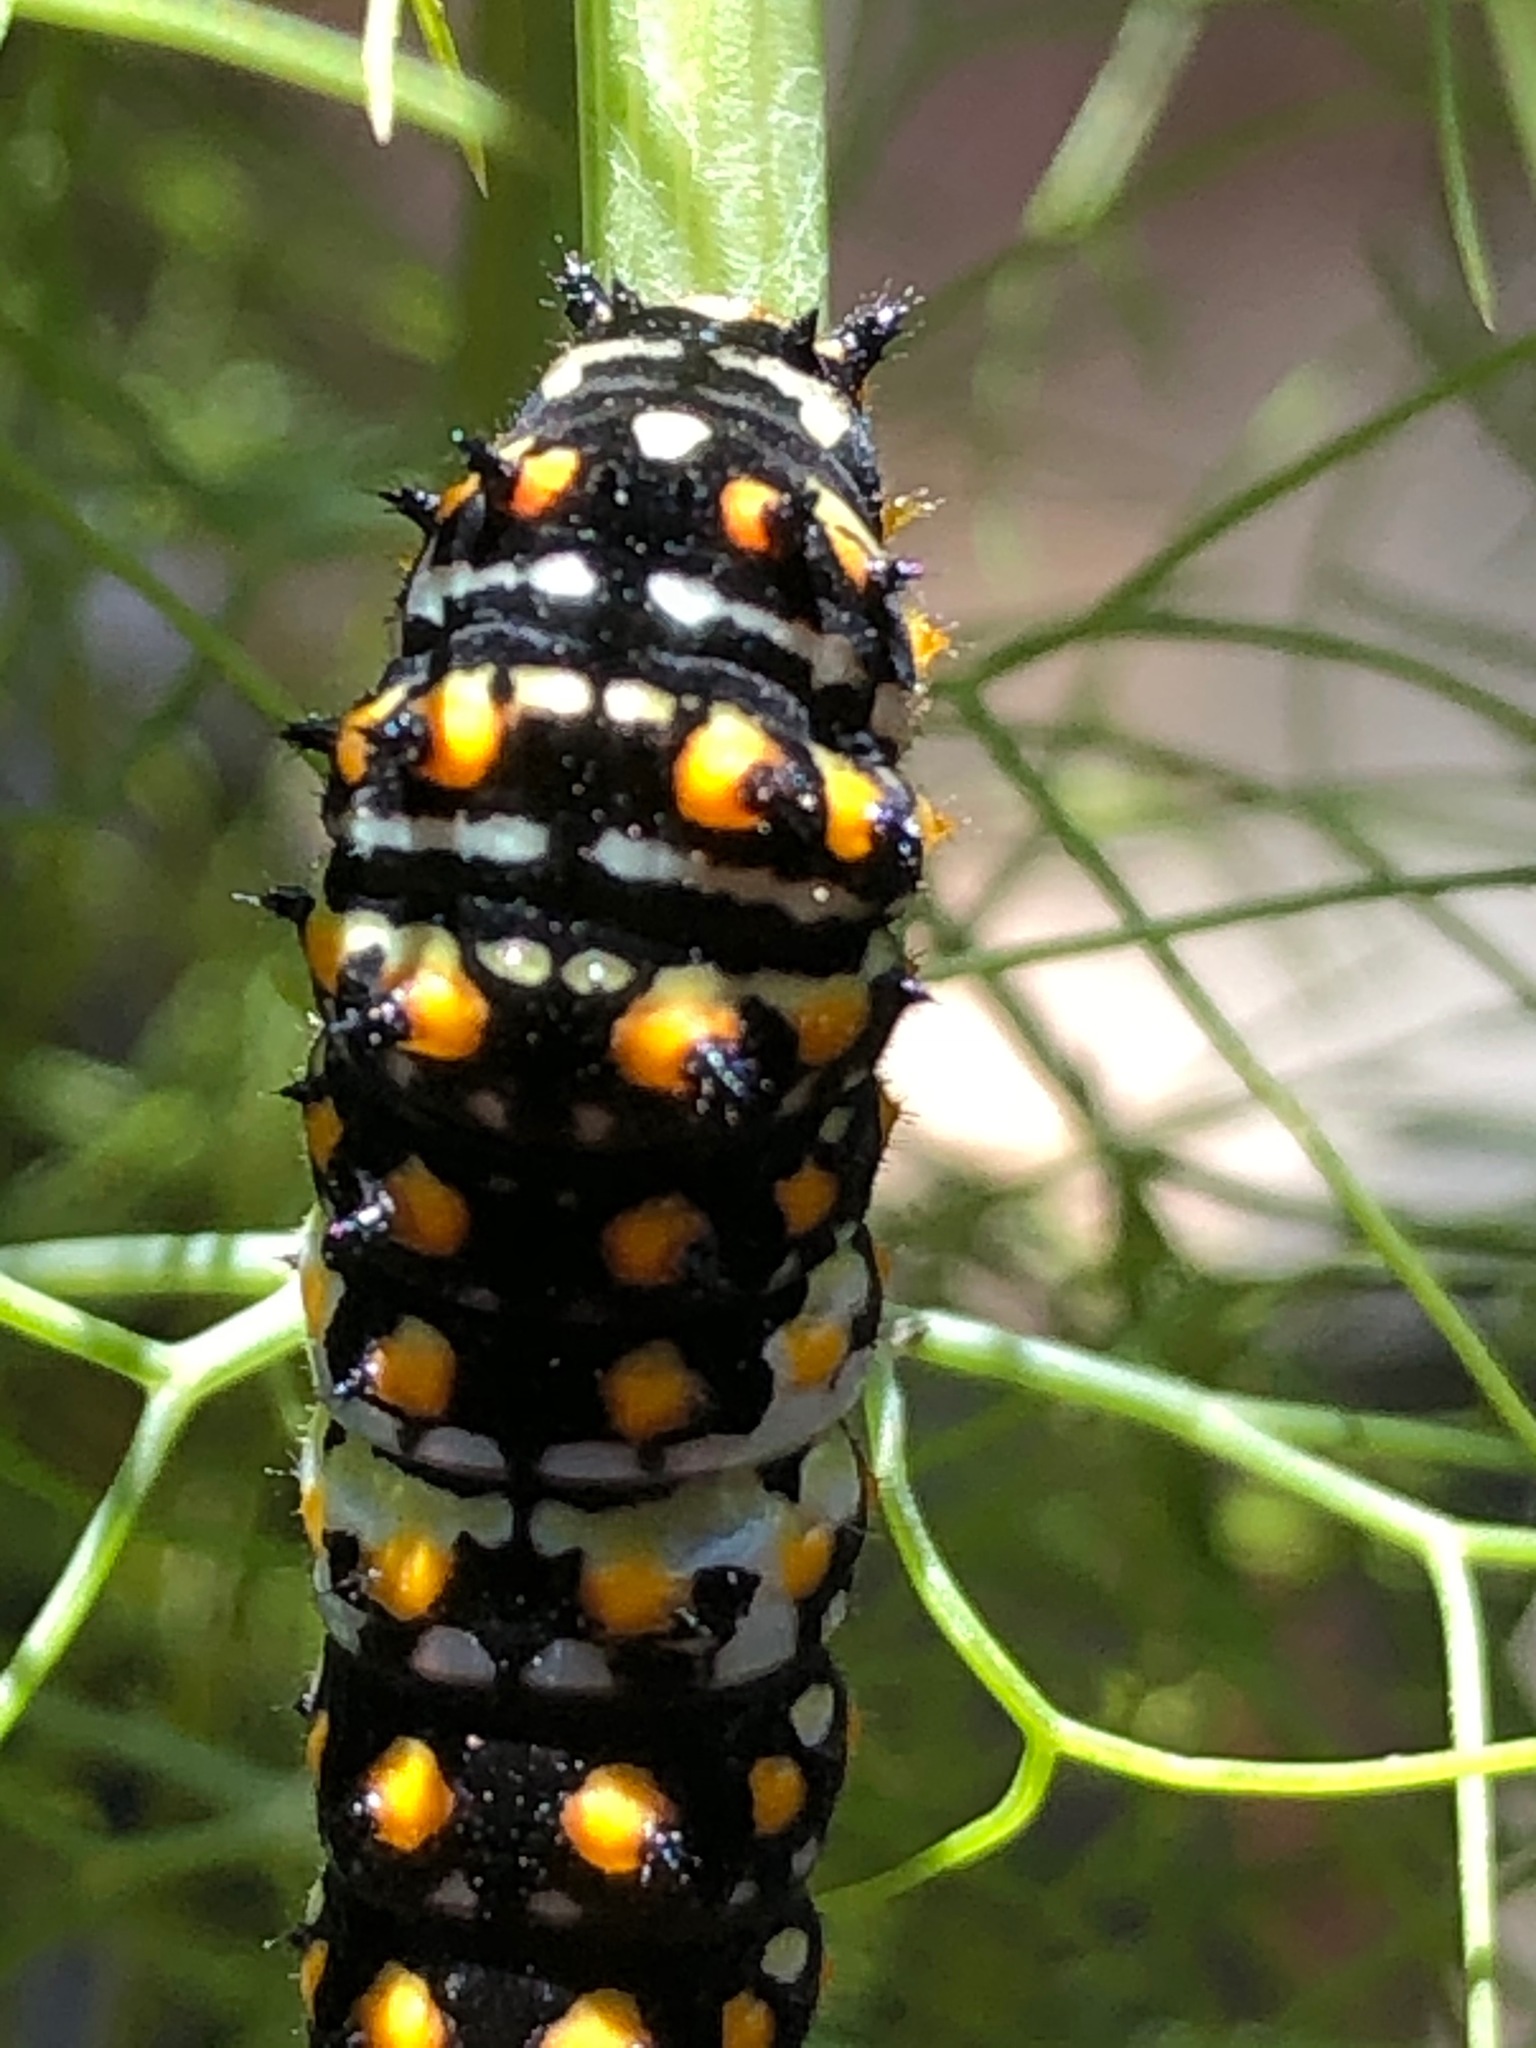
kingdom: Animalia
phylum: Arthropoda
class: Insecta
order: Lepidoptera
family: Papilionidae
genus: Papilio
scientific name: Papilio zelicaon
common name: Anise swallowtail
